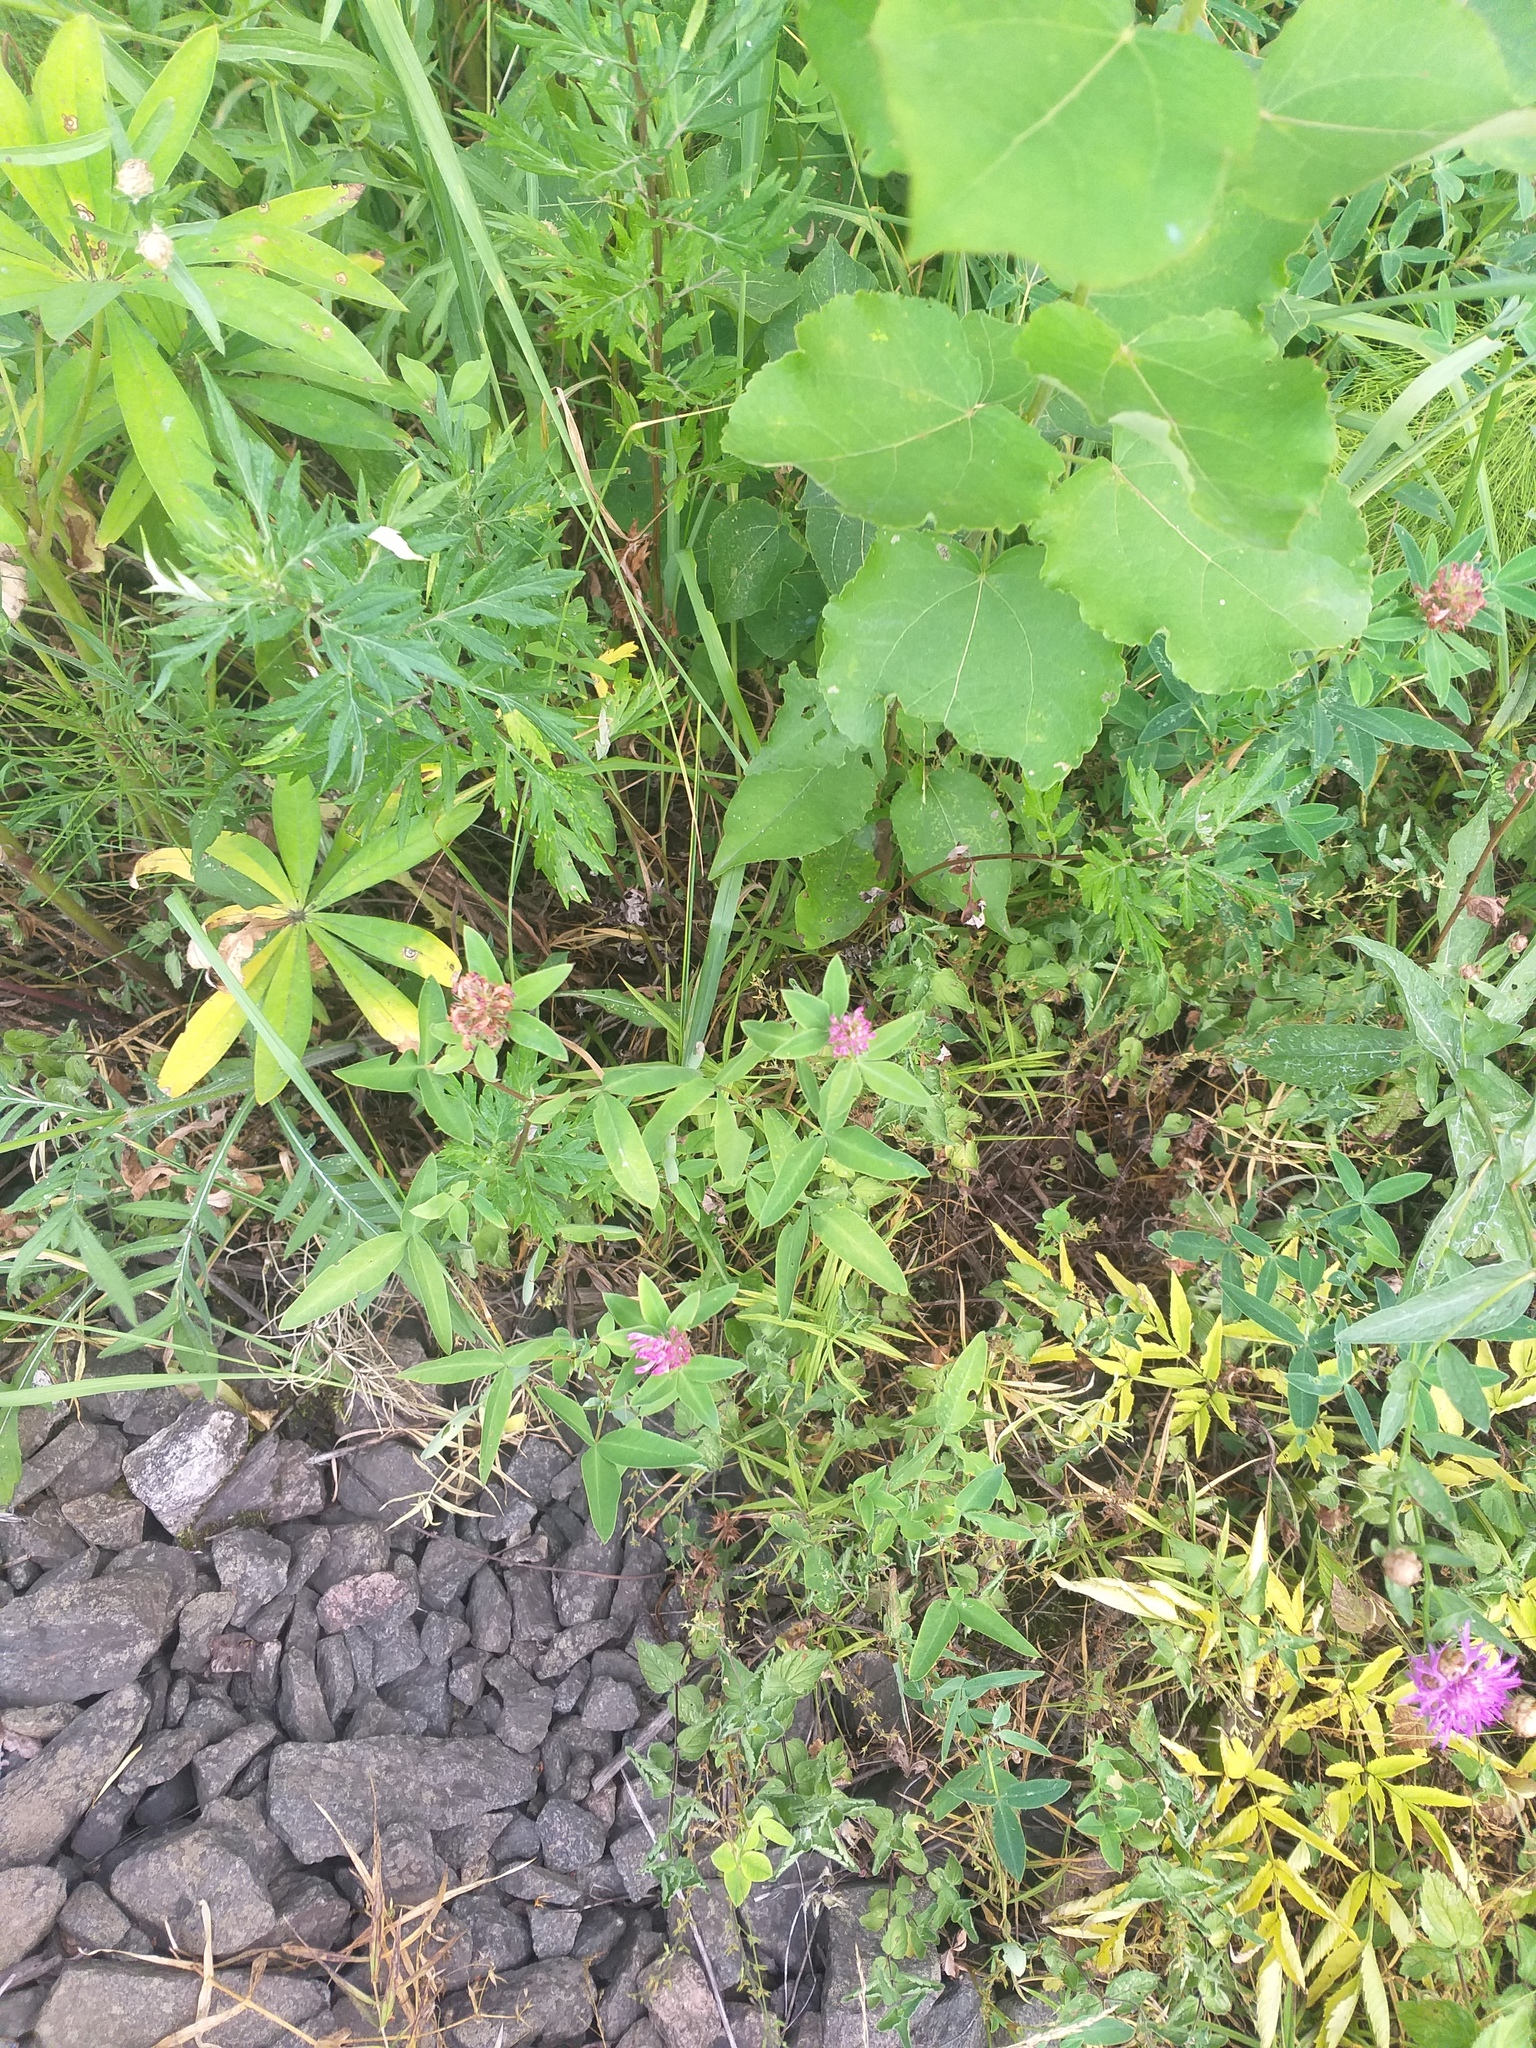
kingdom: Plantae
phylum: Tracheophyta
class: Magnoliopsida
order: Fabales
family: Fabaceae
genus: Trifolium
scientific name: Trifolium medium
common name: Zigzag clover
